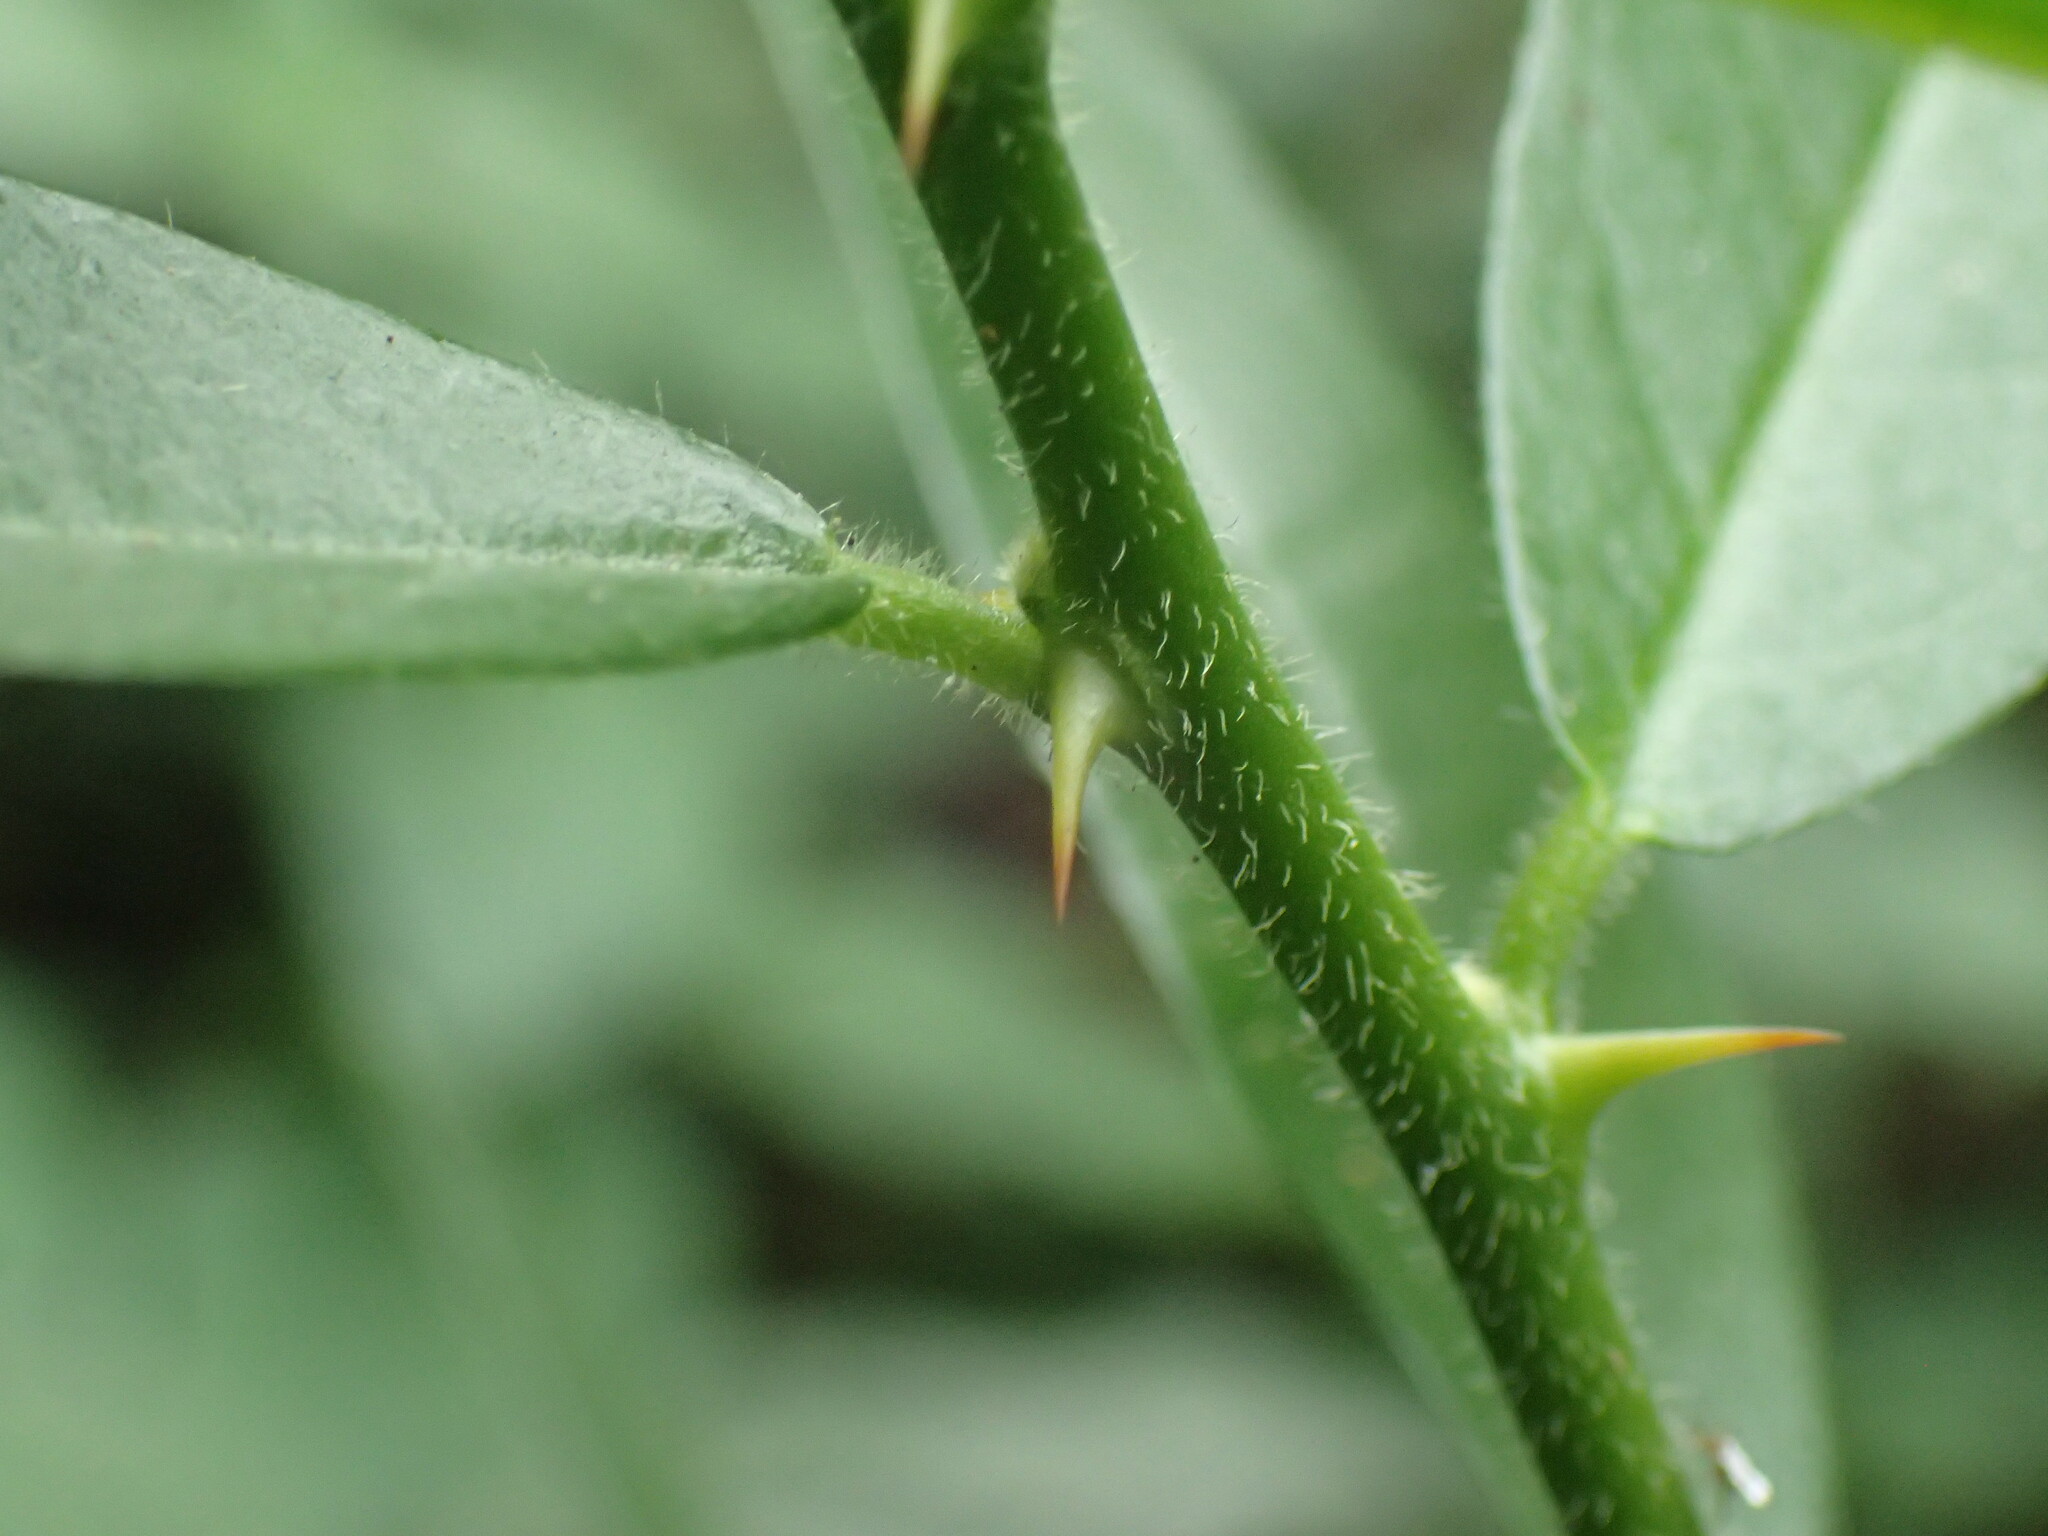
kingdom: Plantae
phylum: Tracheophyta
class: Magnoliopsida
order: Brassicales
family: Capparaceae
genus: Capparis
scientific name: Capparis tomentosa
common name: African caper
